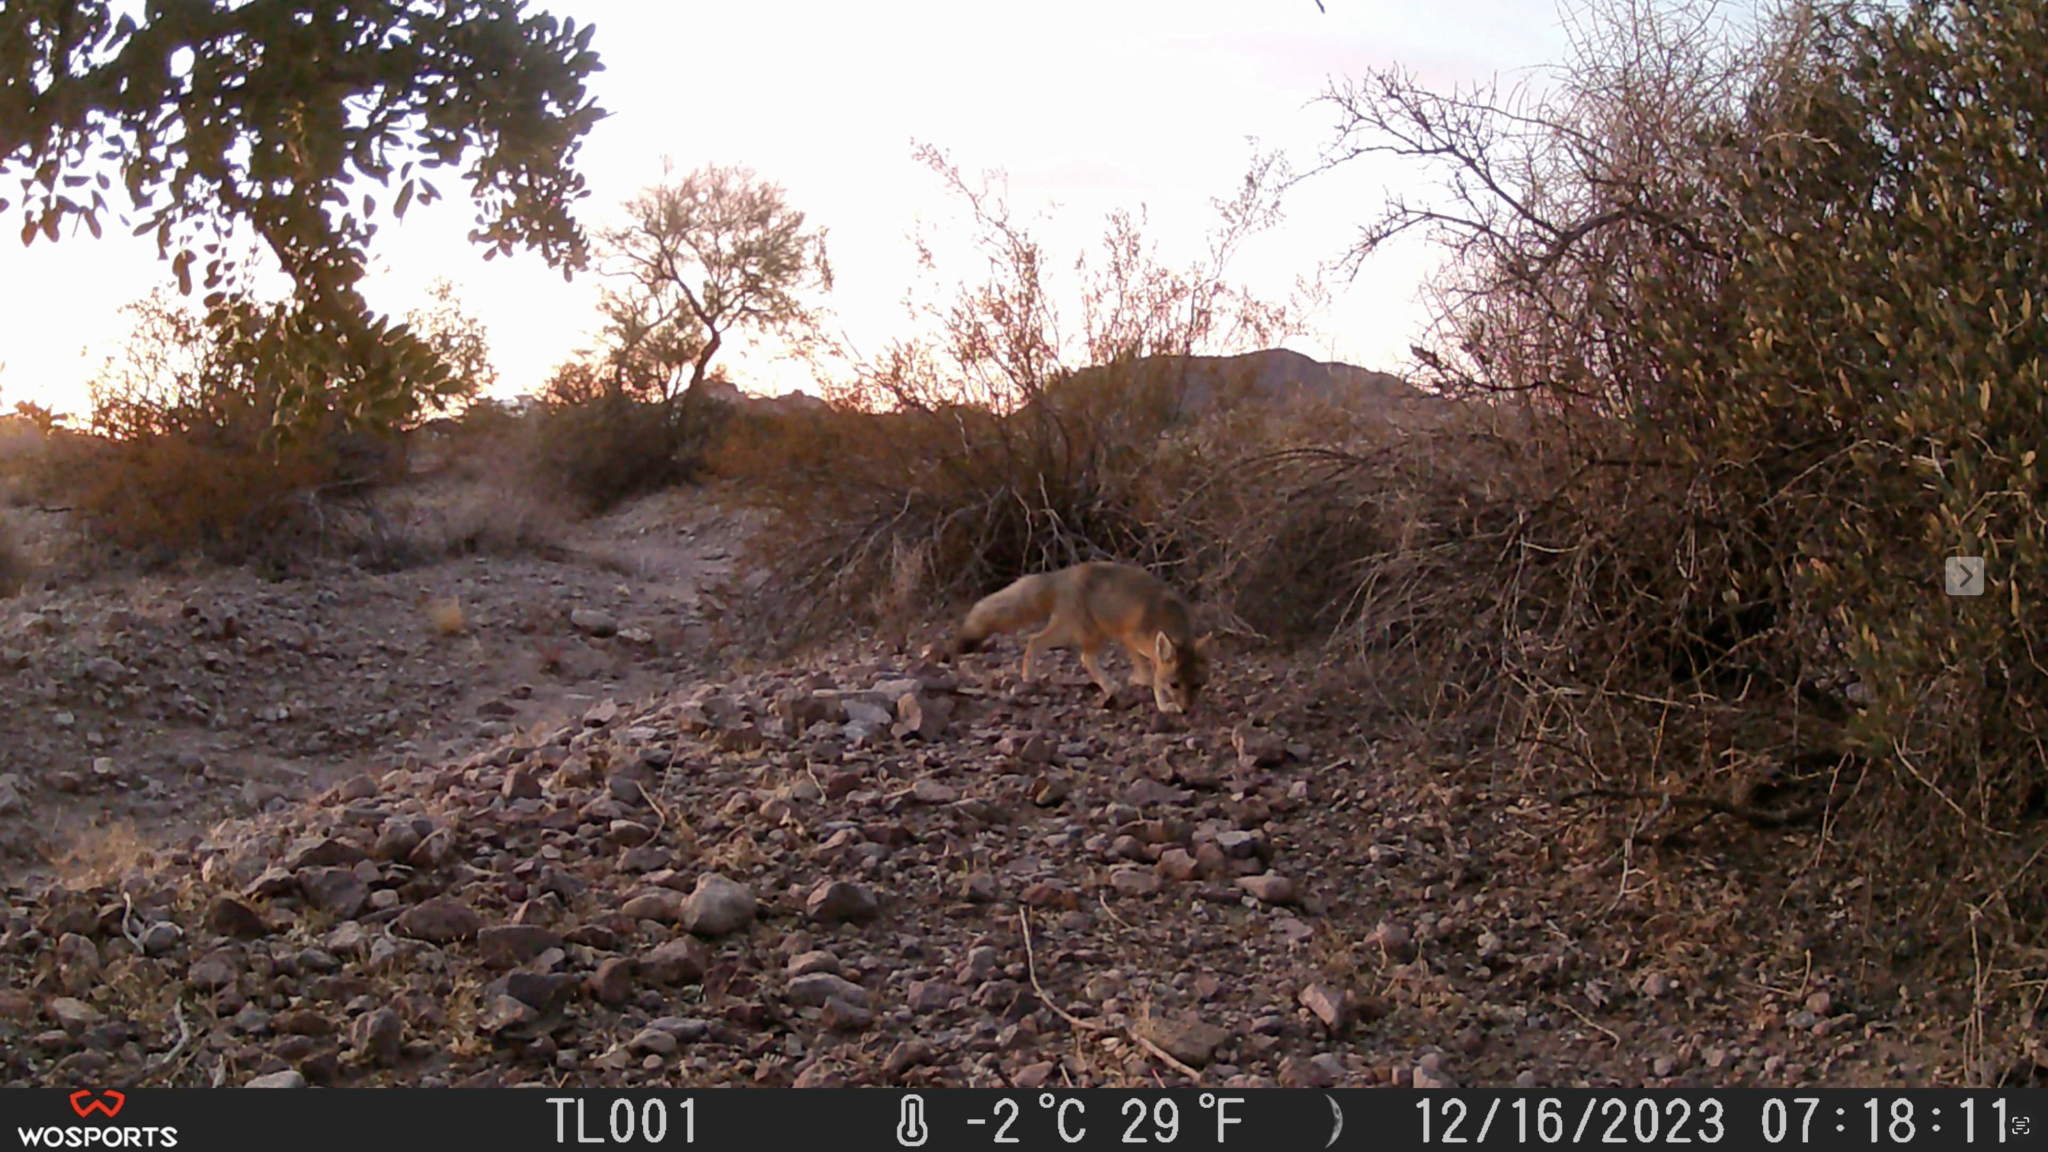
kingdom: Animalia
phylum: Chordata
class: Mammalia
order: Carnivora
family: Canidae
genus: Vulpes
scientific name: Vulpes macrotis
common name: Kit fox
